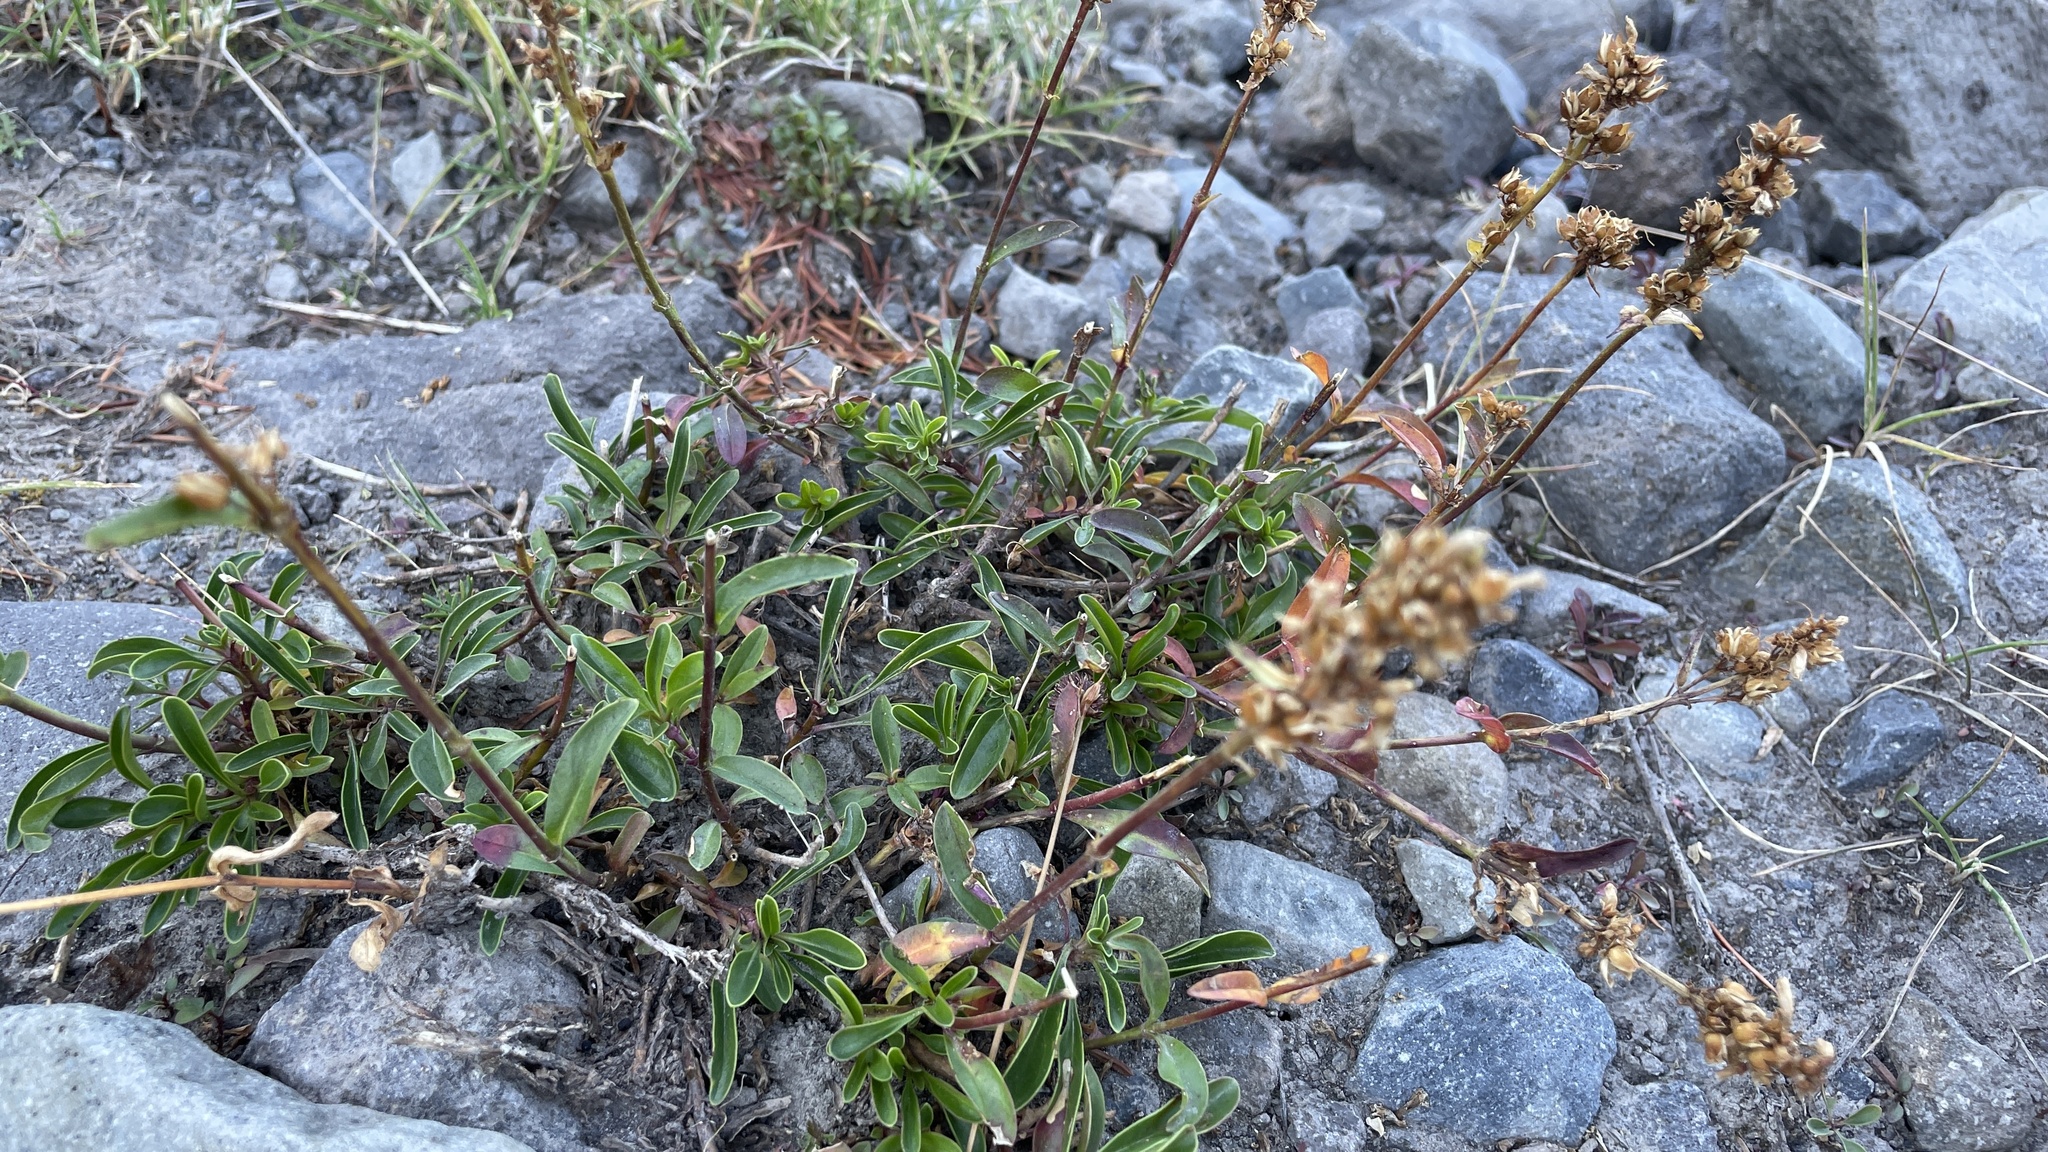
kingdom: Plantae
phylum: Tracheophyta
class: Magnoliopsida
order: Lamiales
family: Plantaginaceae
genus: Penstemon
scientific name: Penstemon procerus
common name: Small-flower penstemon
